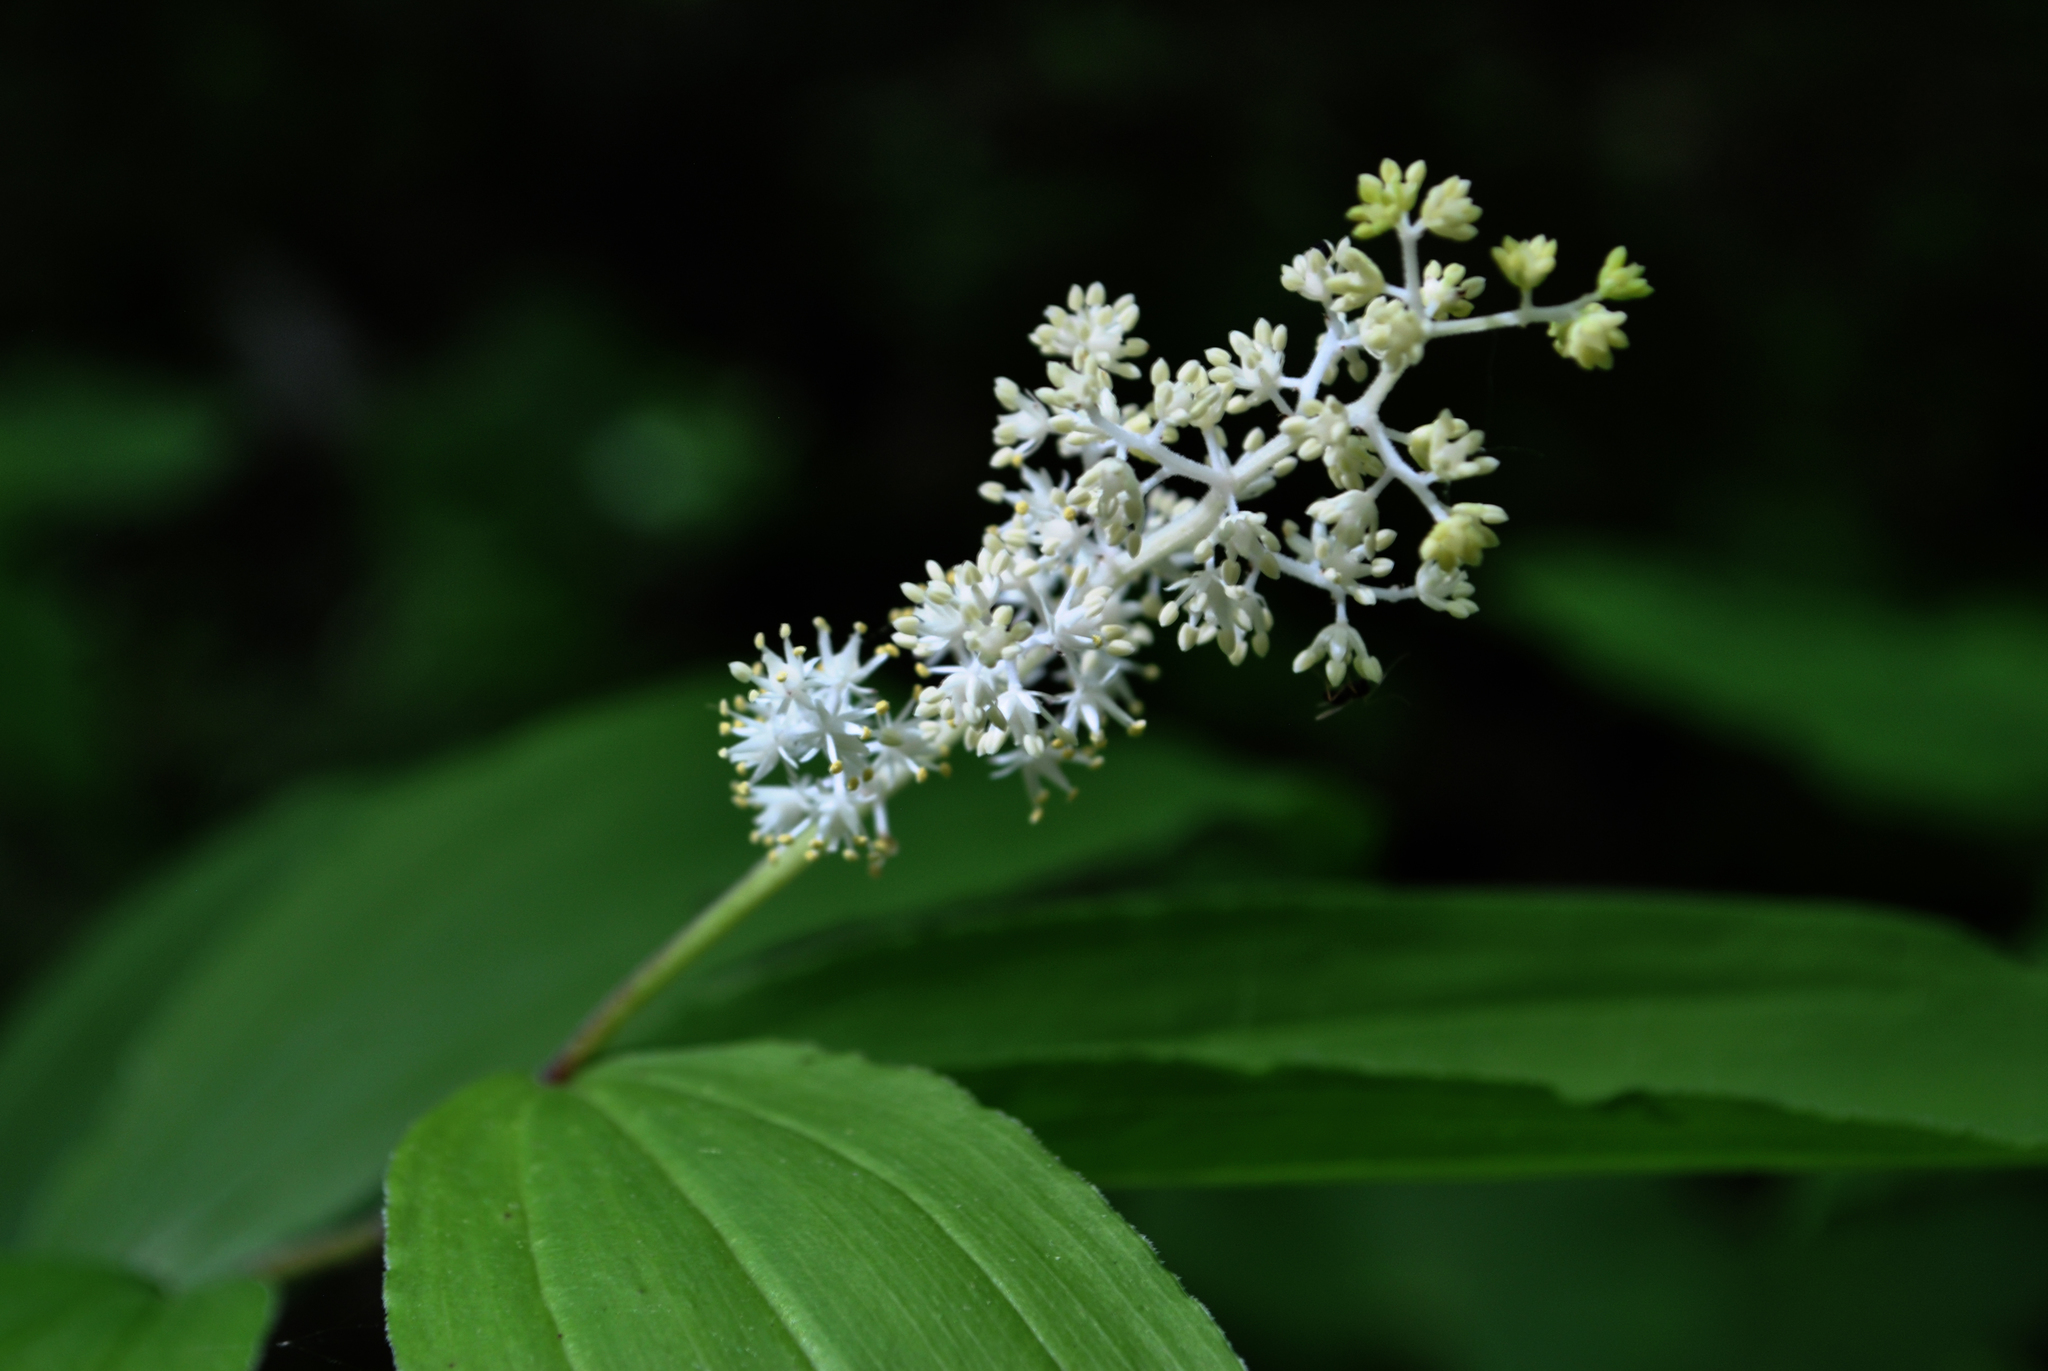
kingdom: Plantae
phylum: Tracheophyta
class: Liliopsida
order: Asparagales
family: Asparagaceae
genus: Maianthemum
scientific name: Maianthemum racemosum
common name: False spikenard
